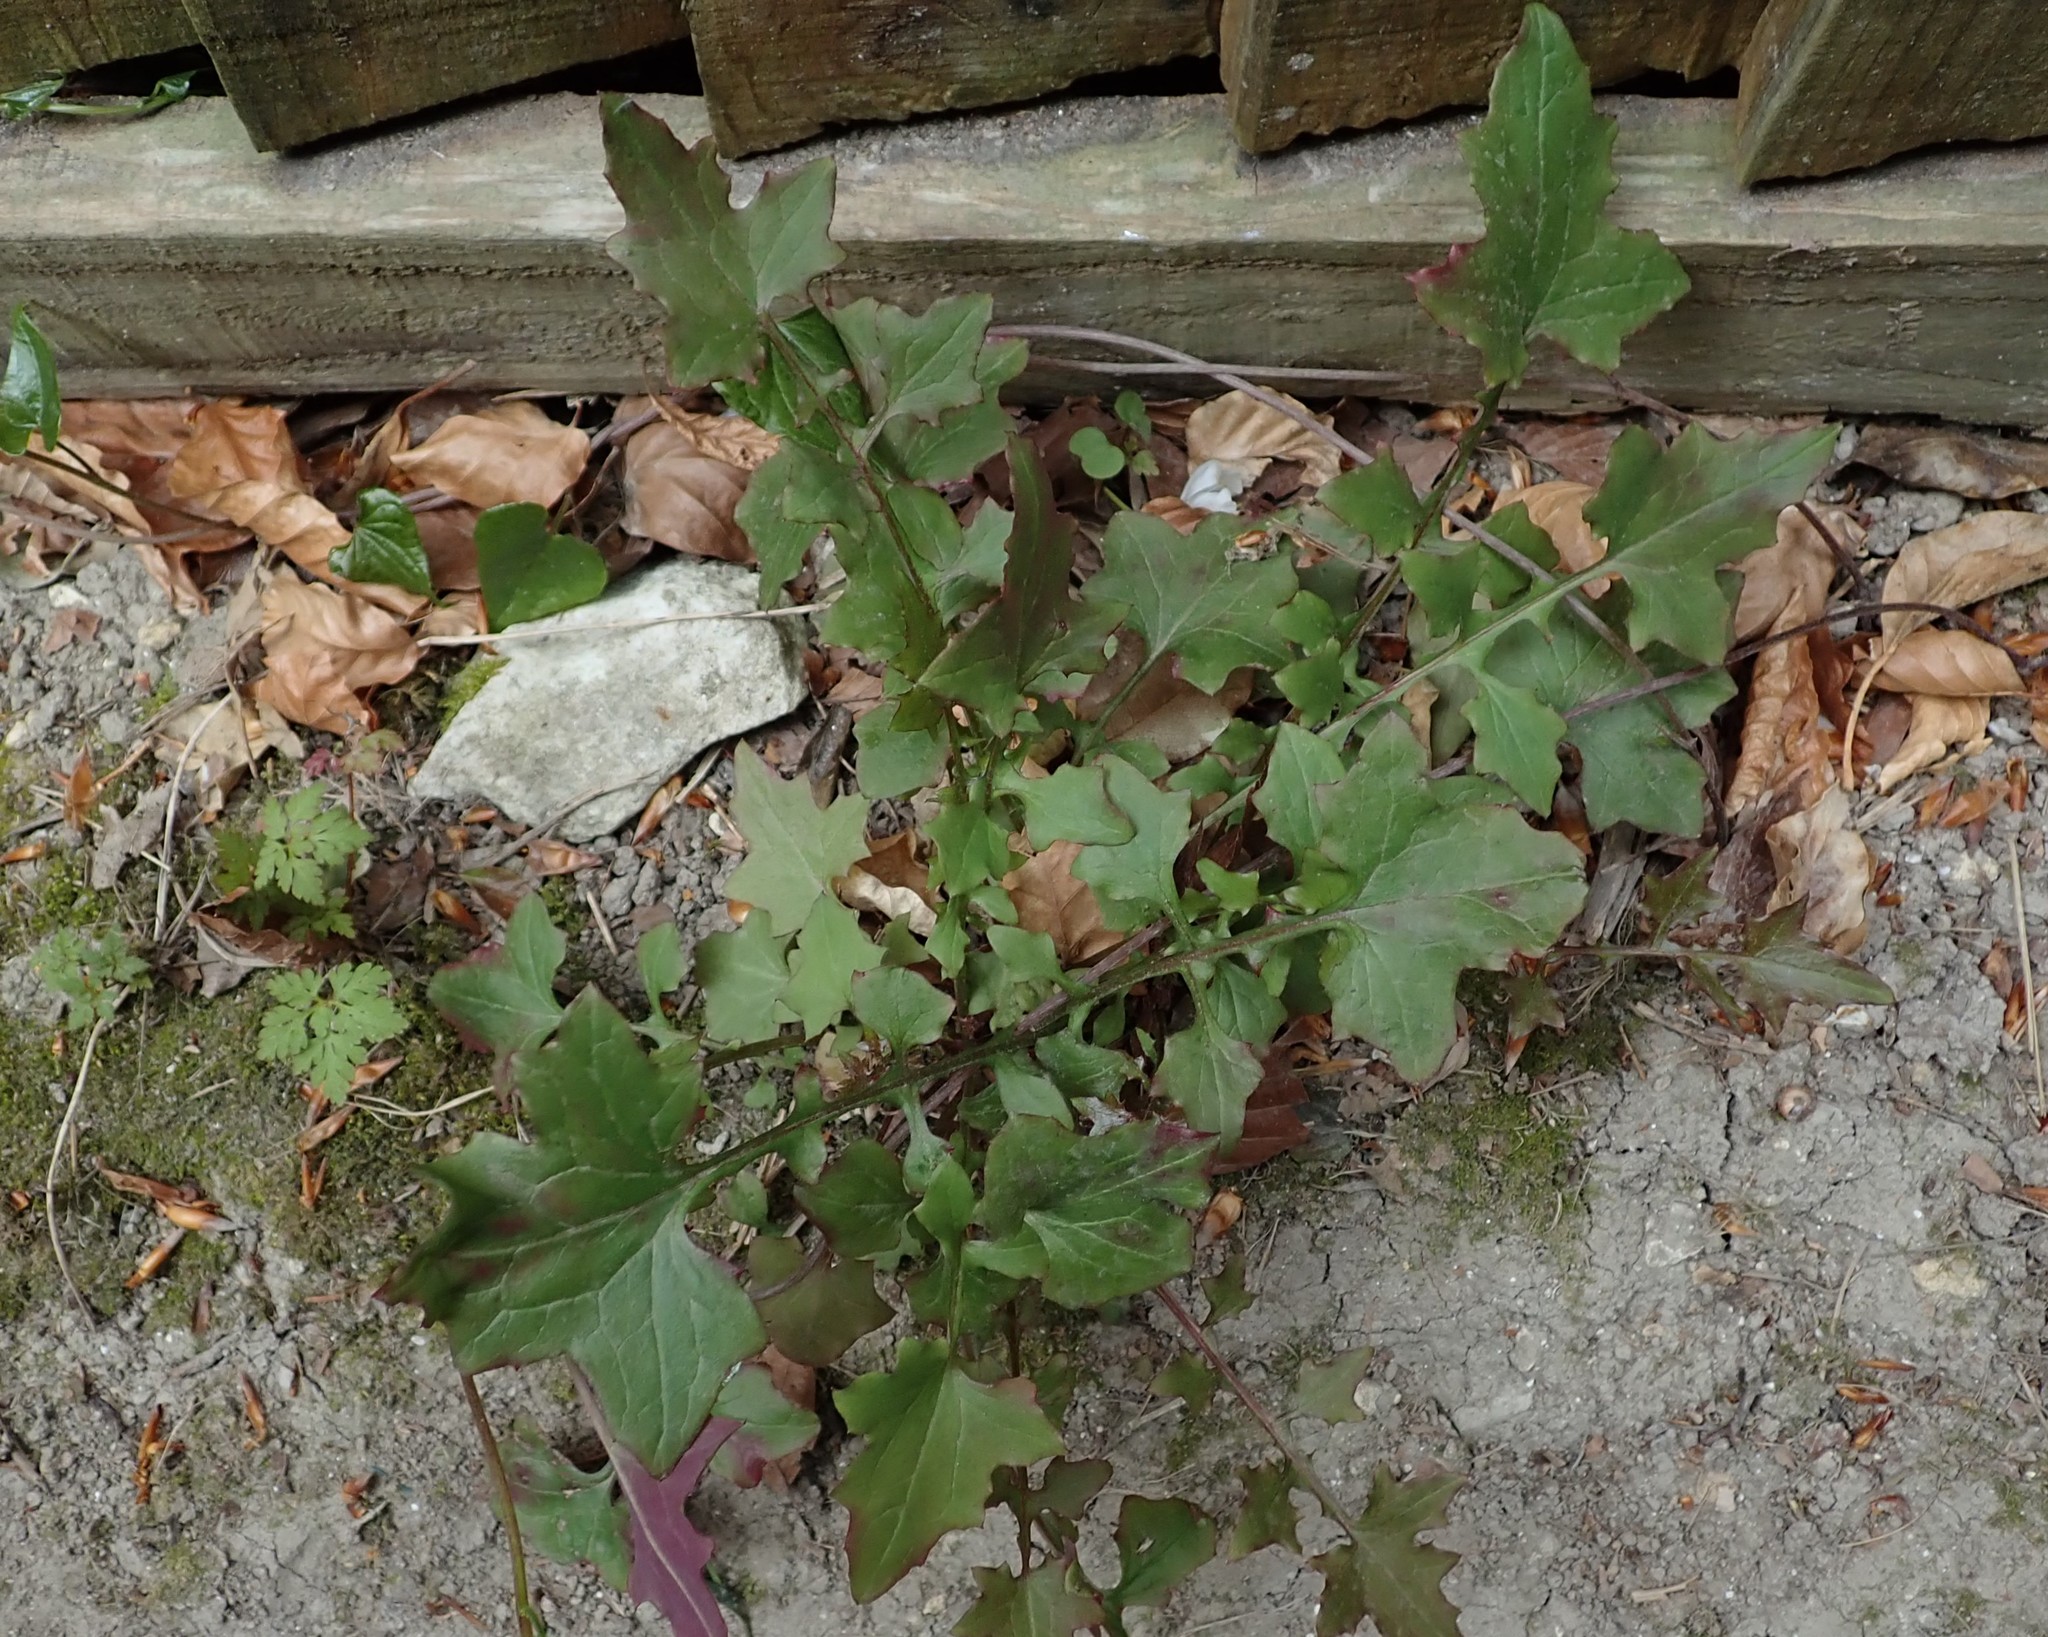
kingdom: Plantae
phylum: Tracheophyta
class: Magnoliopsida
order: Asterales
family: Asteraceae
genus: Mycelis
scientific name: Mycelis muralis
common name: Wall lettuce
